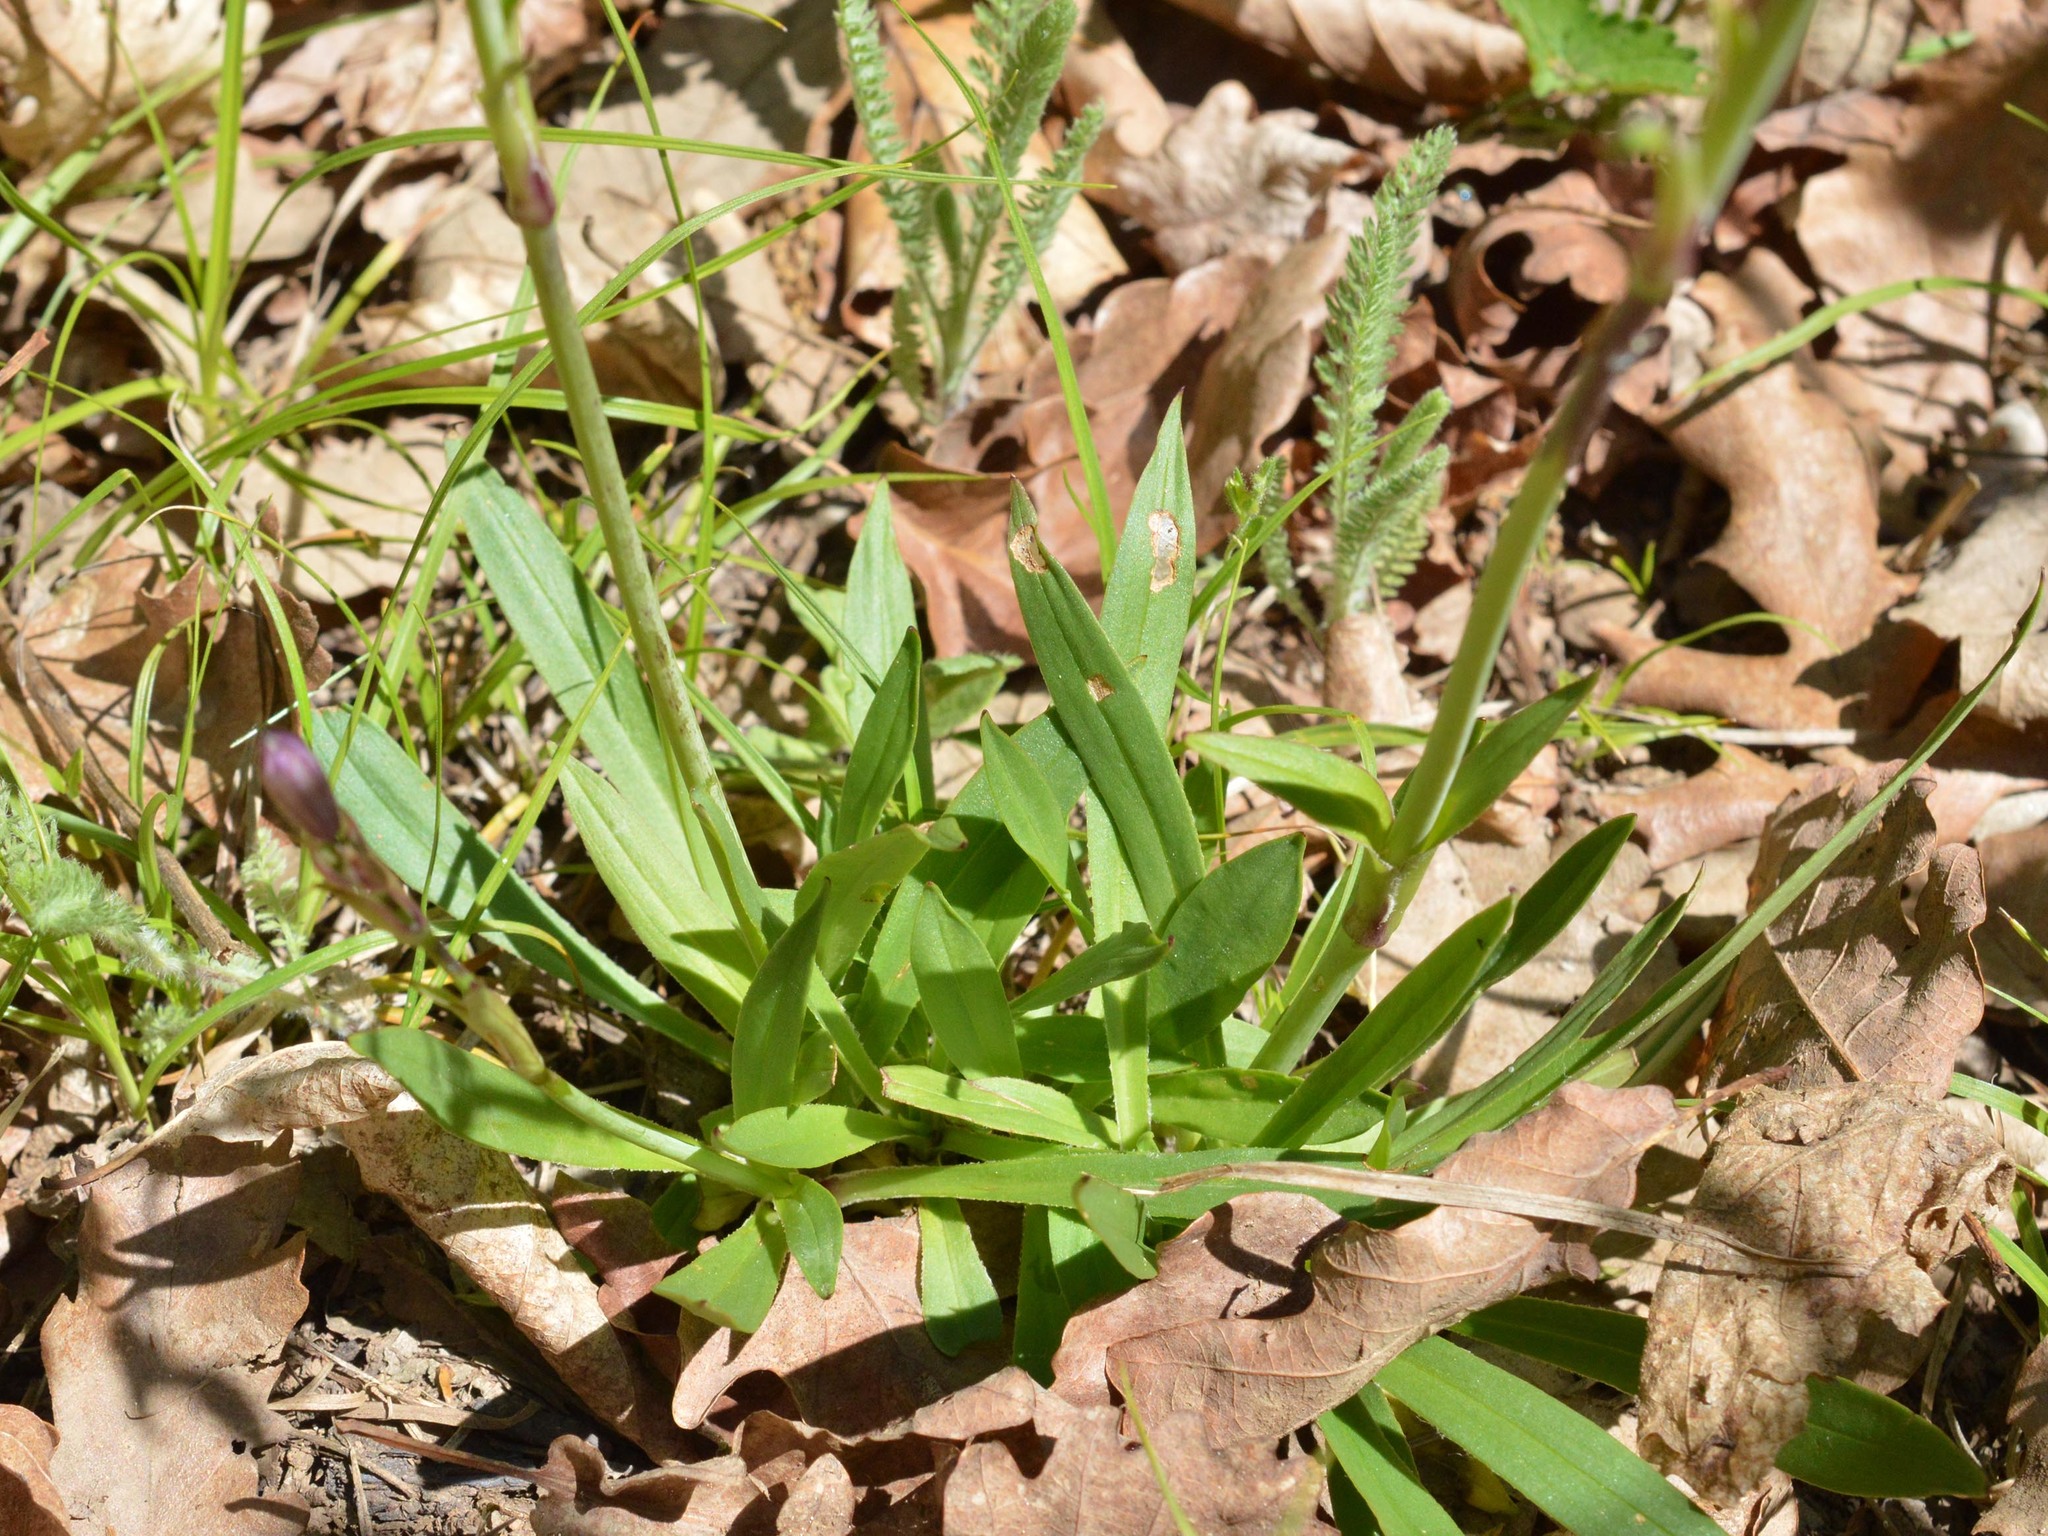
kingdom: Plantae
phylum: Tracheophyta
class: Magnoliopsida
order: Caryophyllales
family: Caryophyllaceae
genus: Viscaria
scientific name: Viscaria vulgaris
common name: Clammy campion
